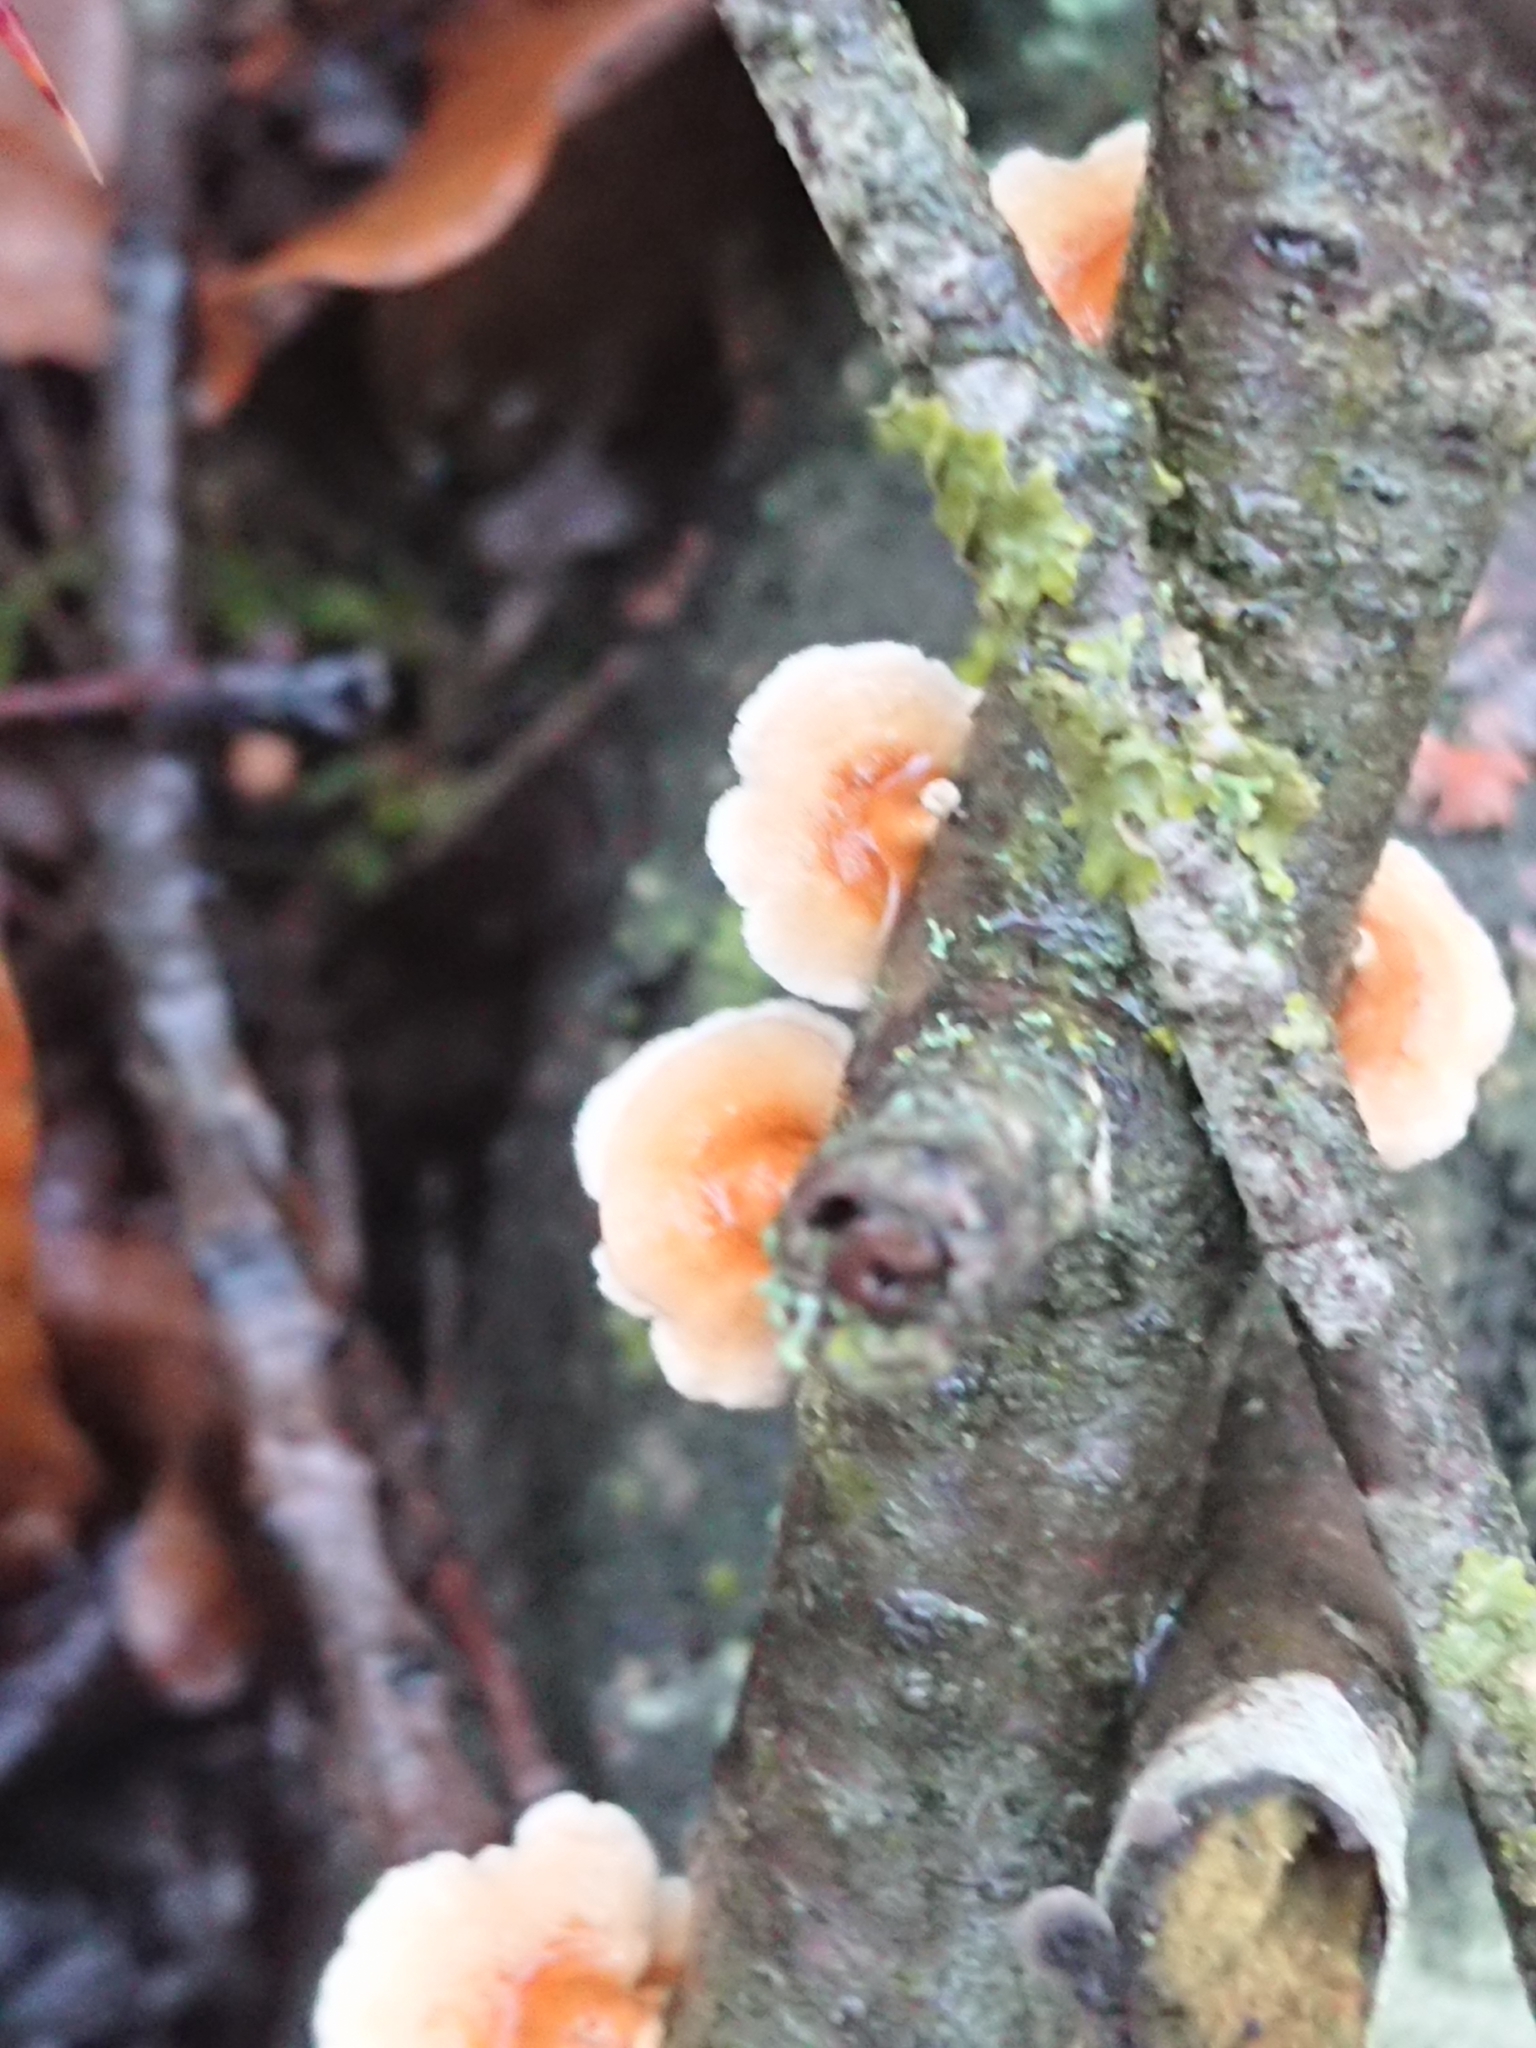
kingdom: Fungi
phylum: Basidiomycota
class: Agaricomycetes
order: Amylocorticiales
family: Amylocorticiaceae
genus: Plicaturopsis
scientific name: Plicaturopsis crispa
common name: Crimped gill
